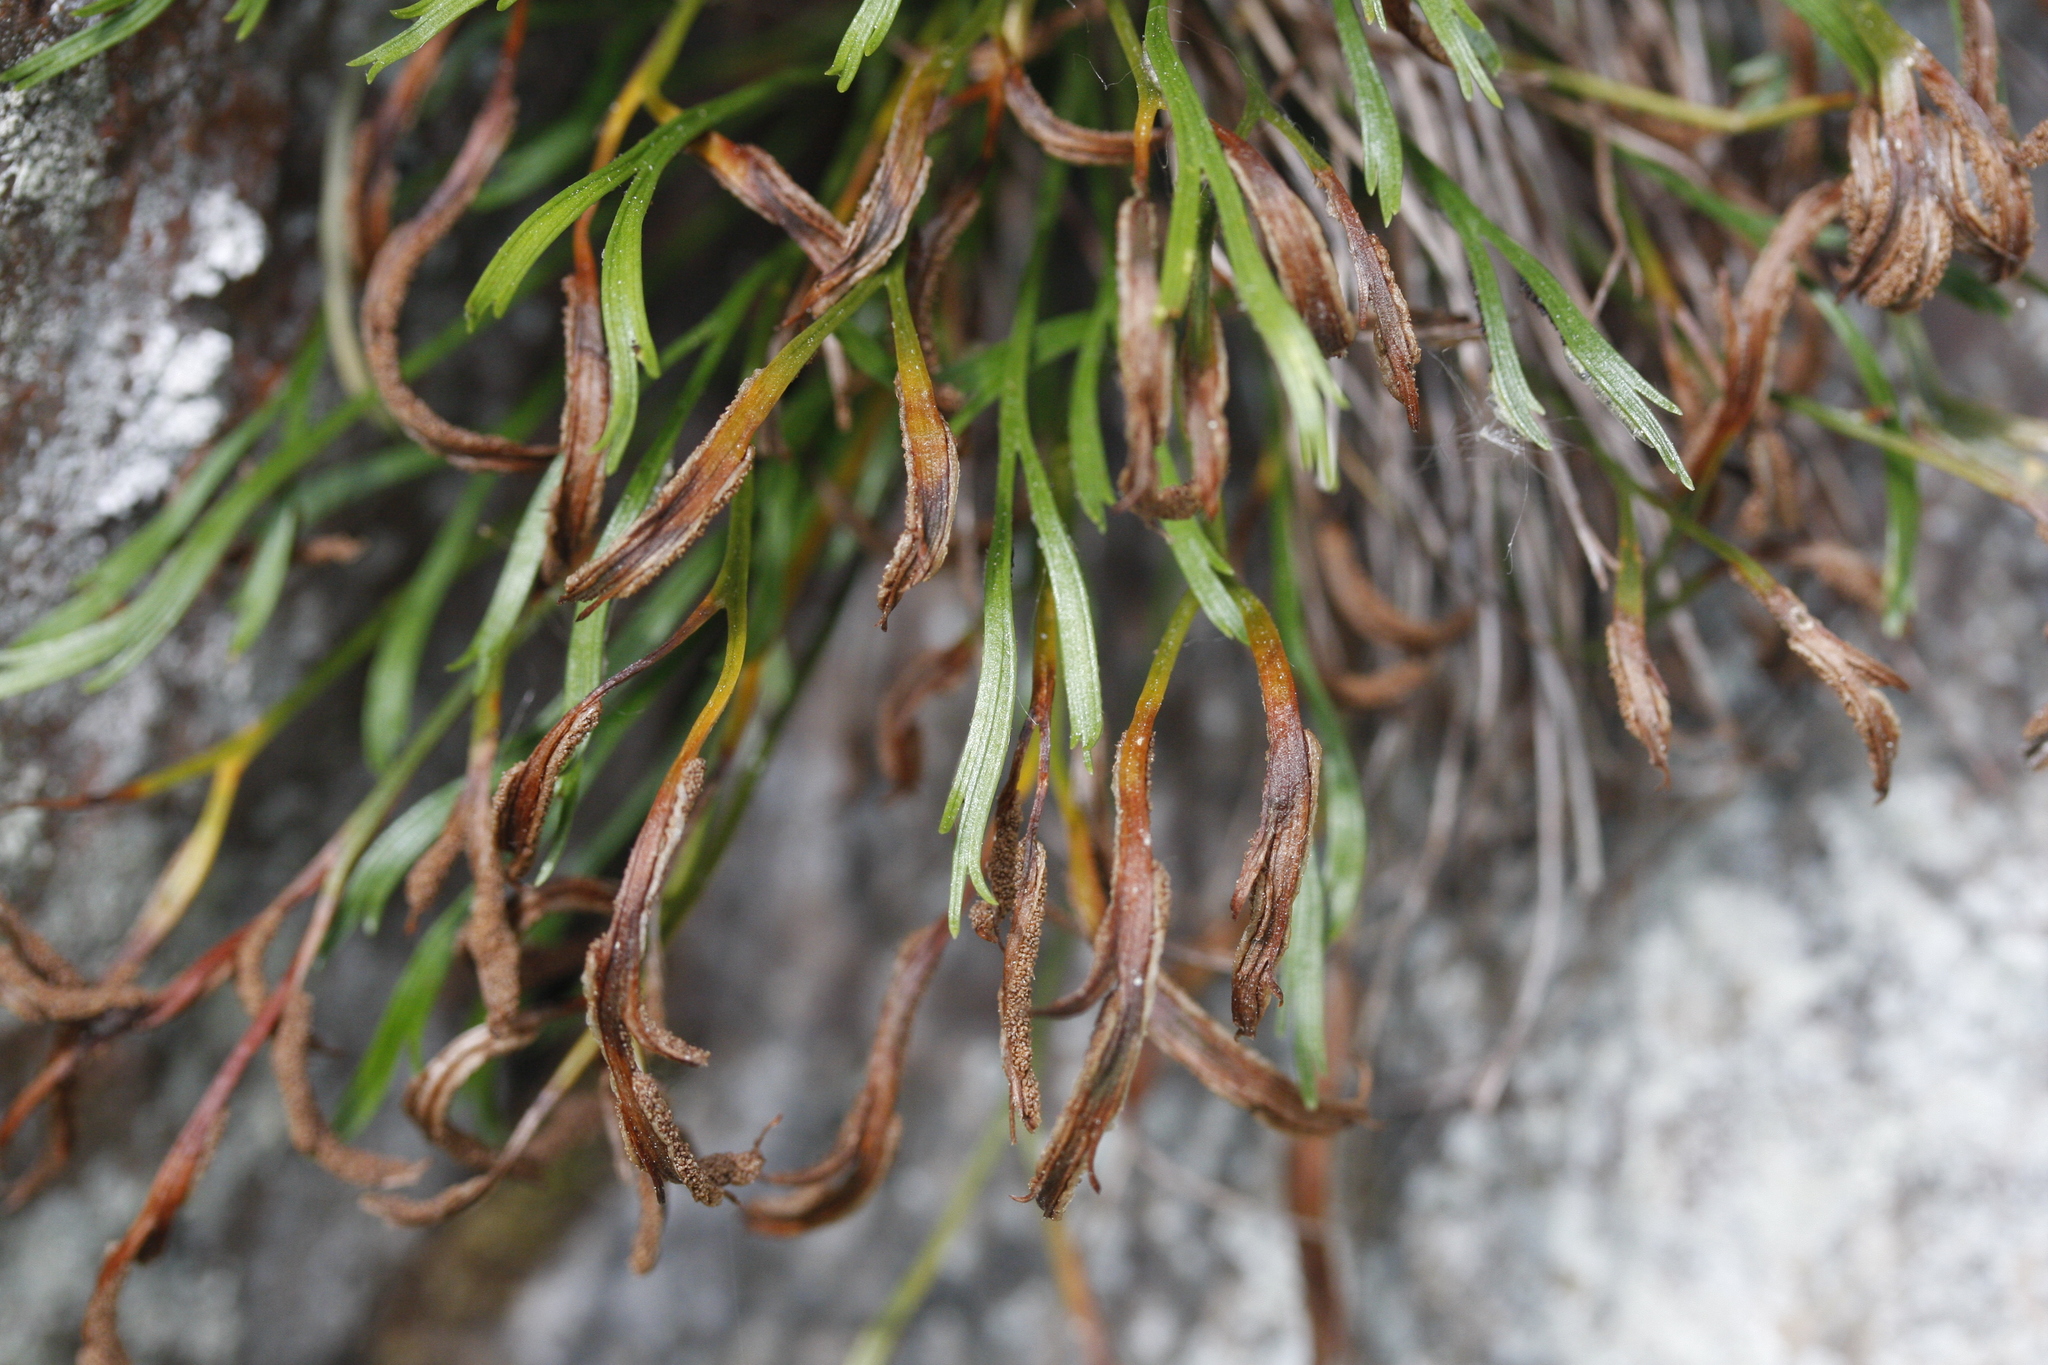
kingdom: Plantae
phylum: Tracheophyta
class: Polypodiopsida
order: Polypodiales
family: Aspleniaceae
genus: Asplenium
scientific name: Asplenium septentrionale
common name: Forked spleenwort
